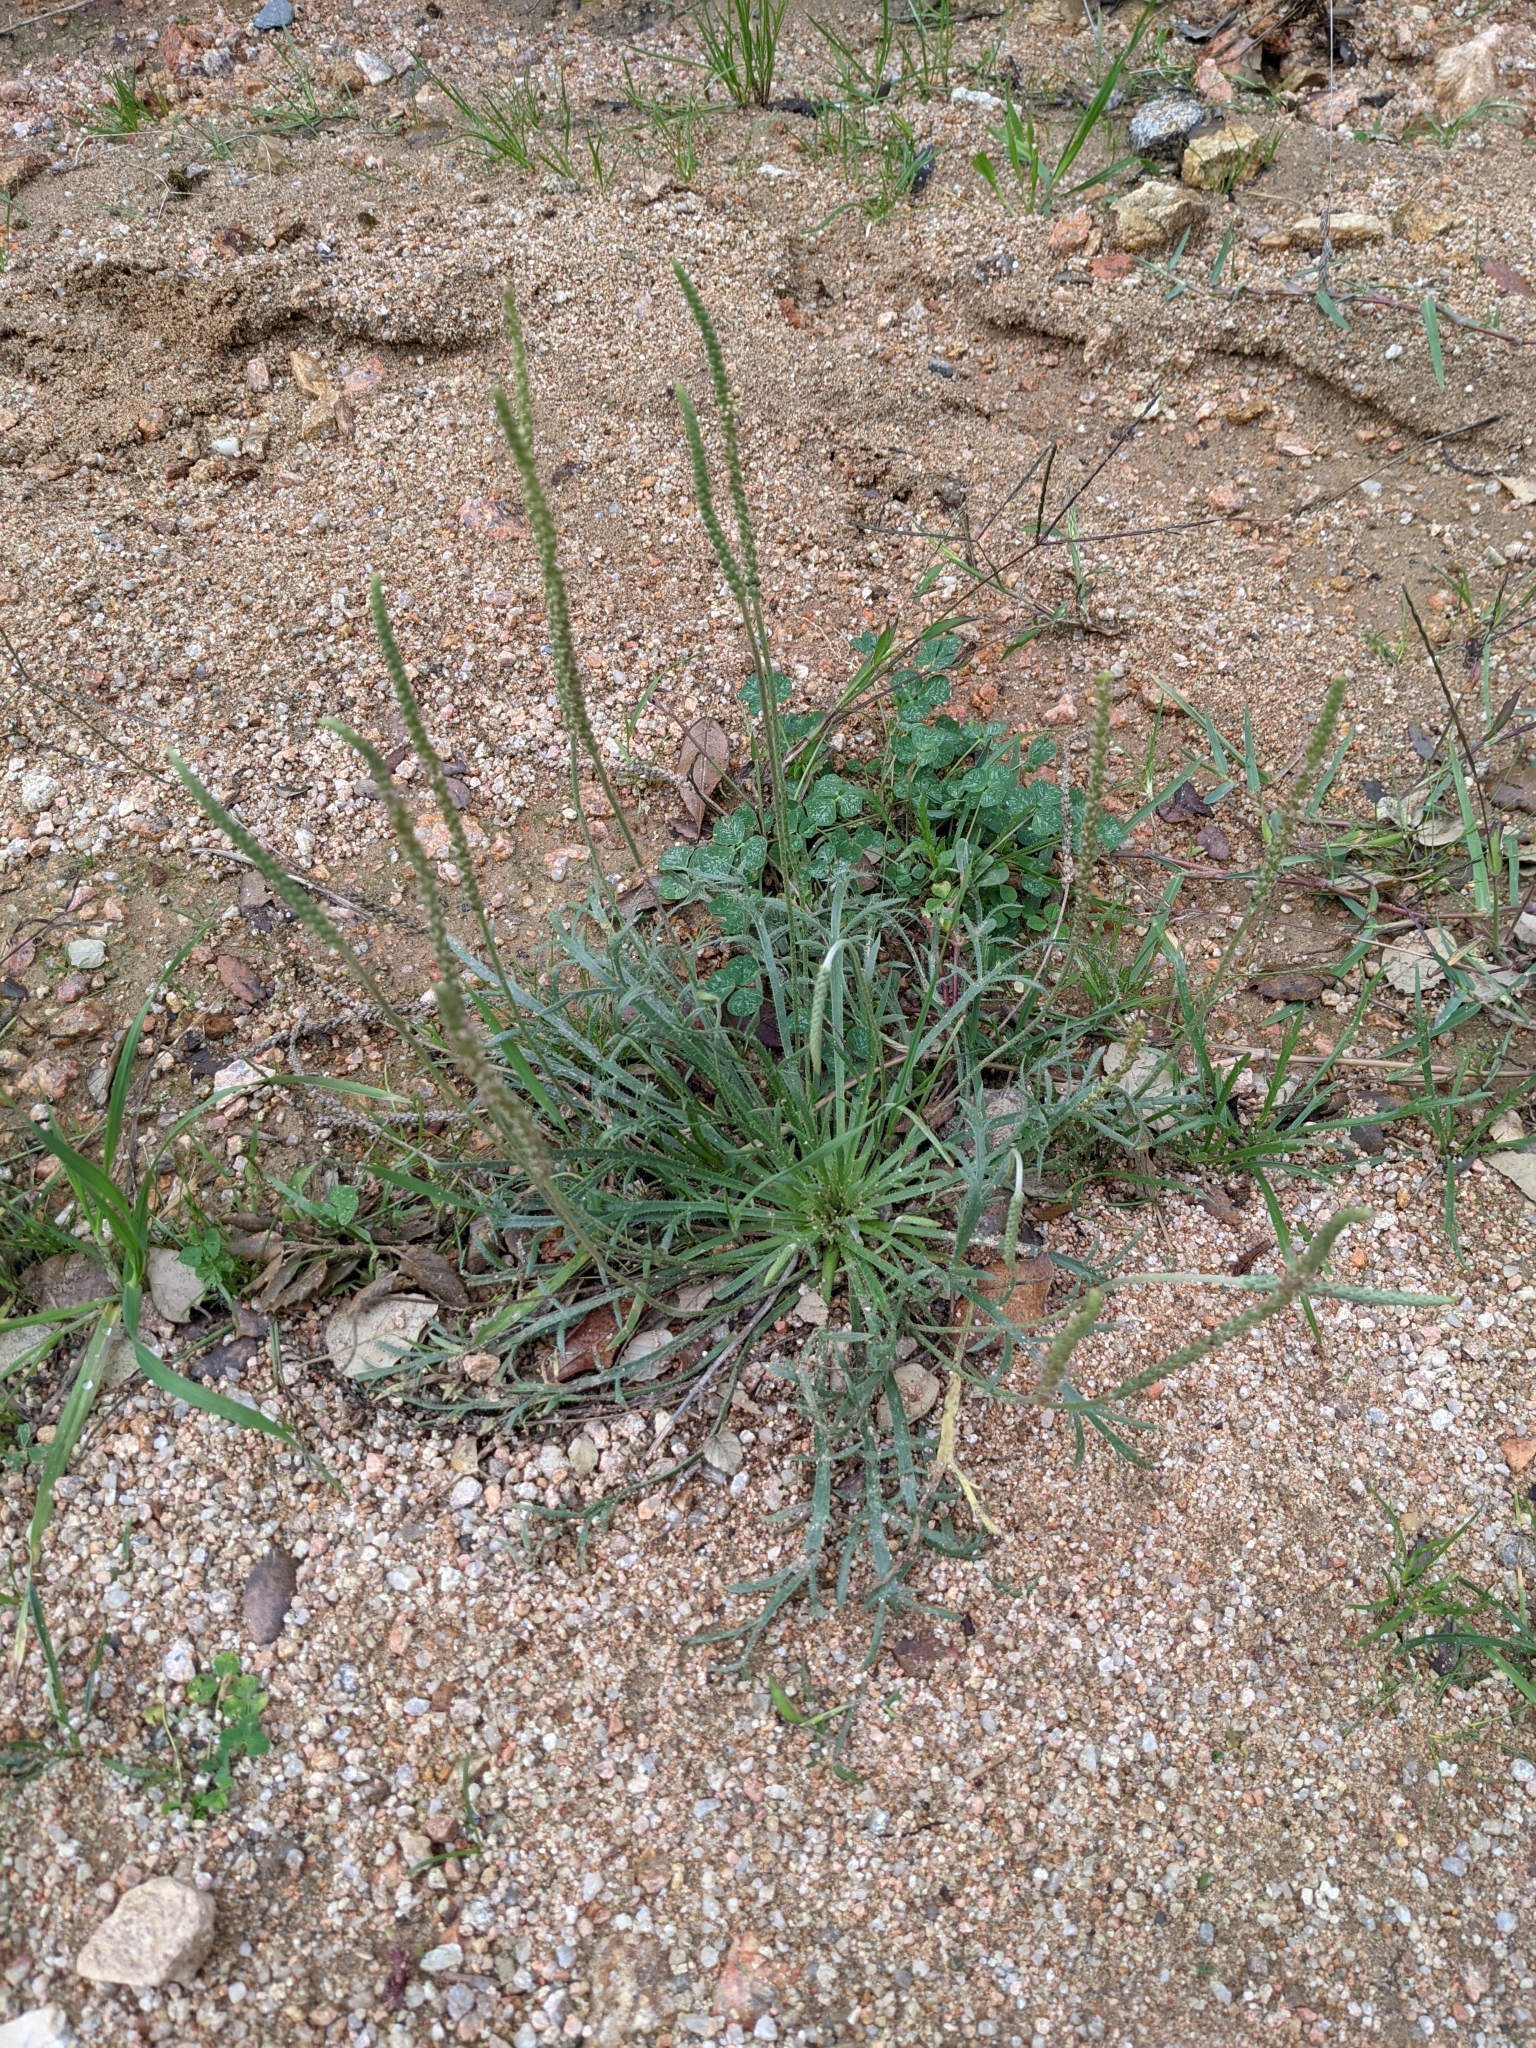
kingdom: Plantae
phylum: Tracheophyta
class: Magnoliopsida
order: Lamiales
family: Plantaginaceae
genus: Plantago
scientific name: Plantago coronopus
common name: Buck's-horn plantain
